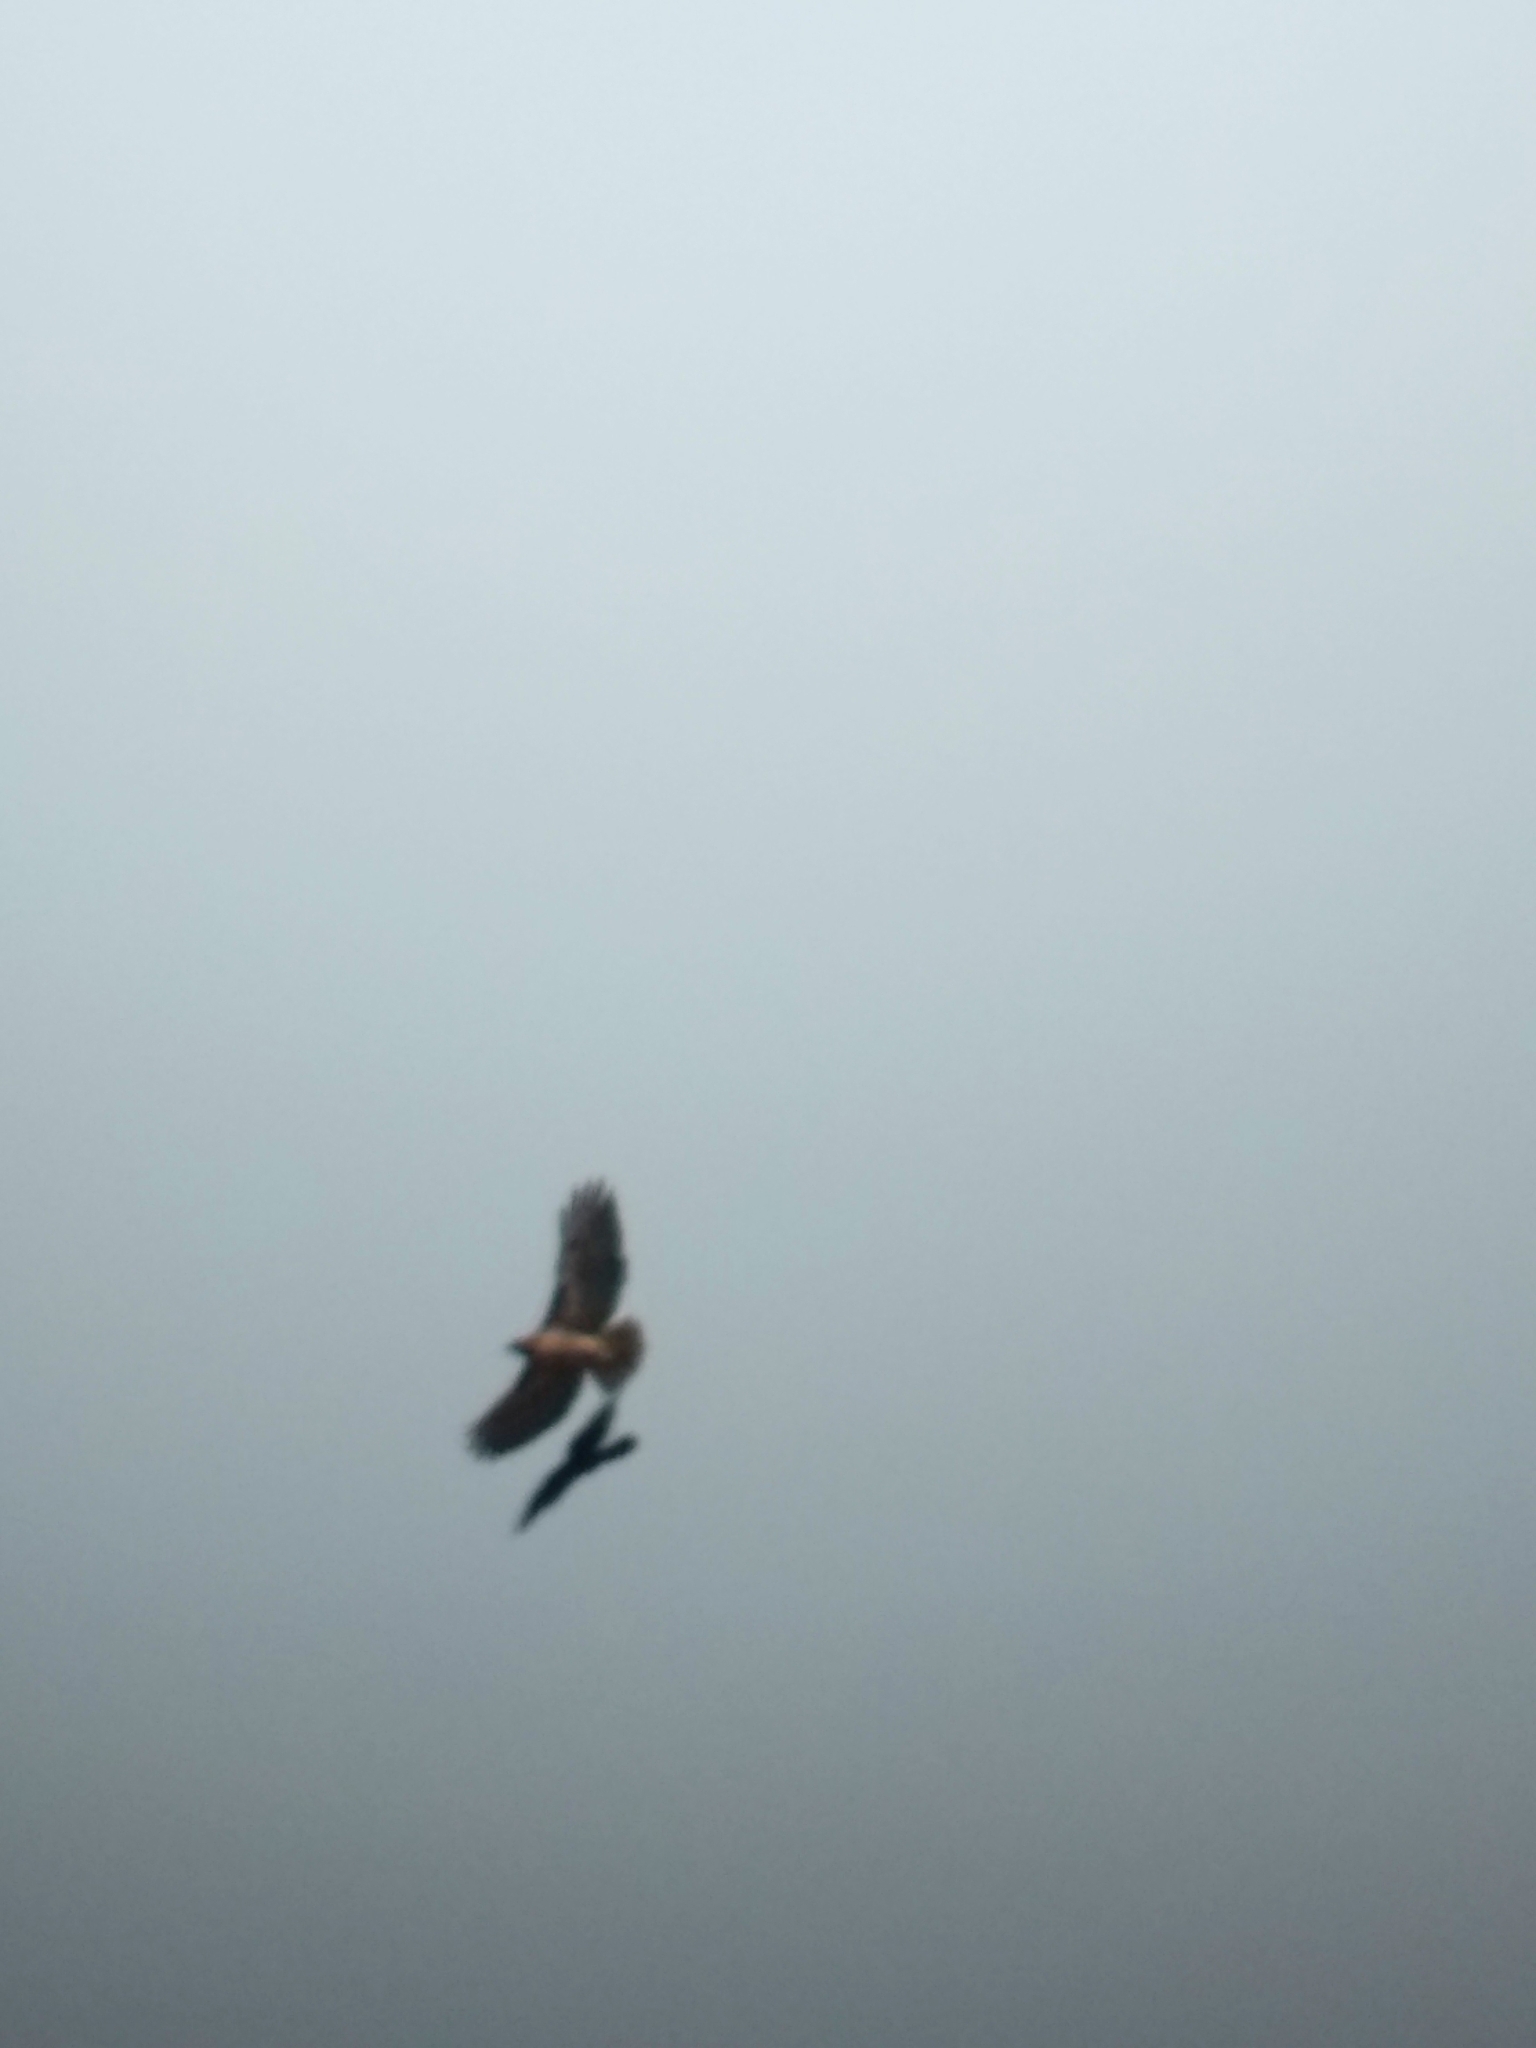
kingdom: Animalia
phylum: Chordata
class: Aves
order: Accipitriformes
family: Accipitridae
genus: Buteo
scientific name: Buteo jamaicensis
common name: Red-tailed hawk
